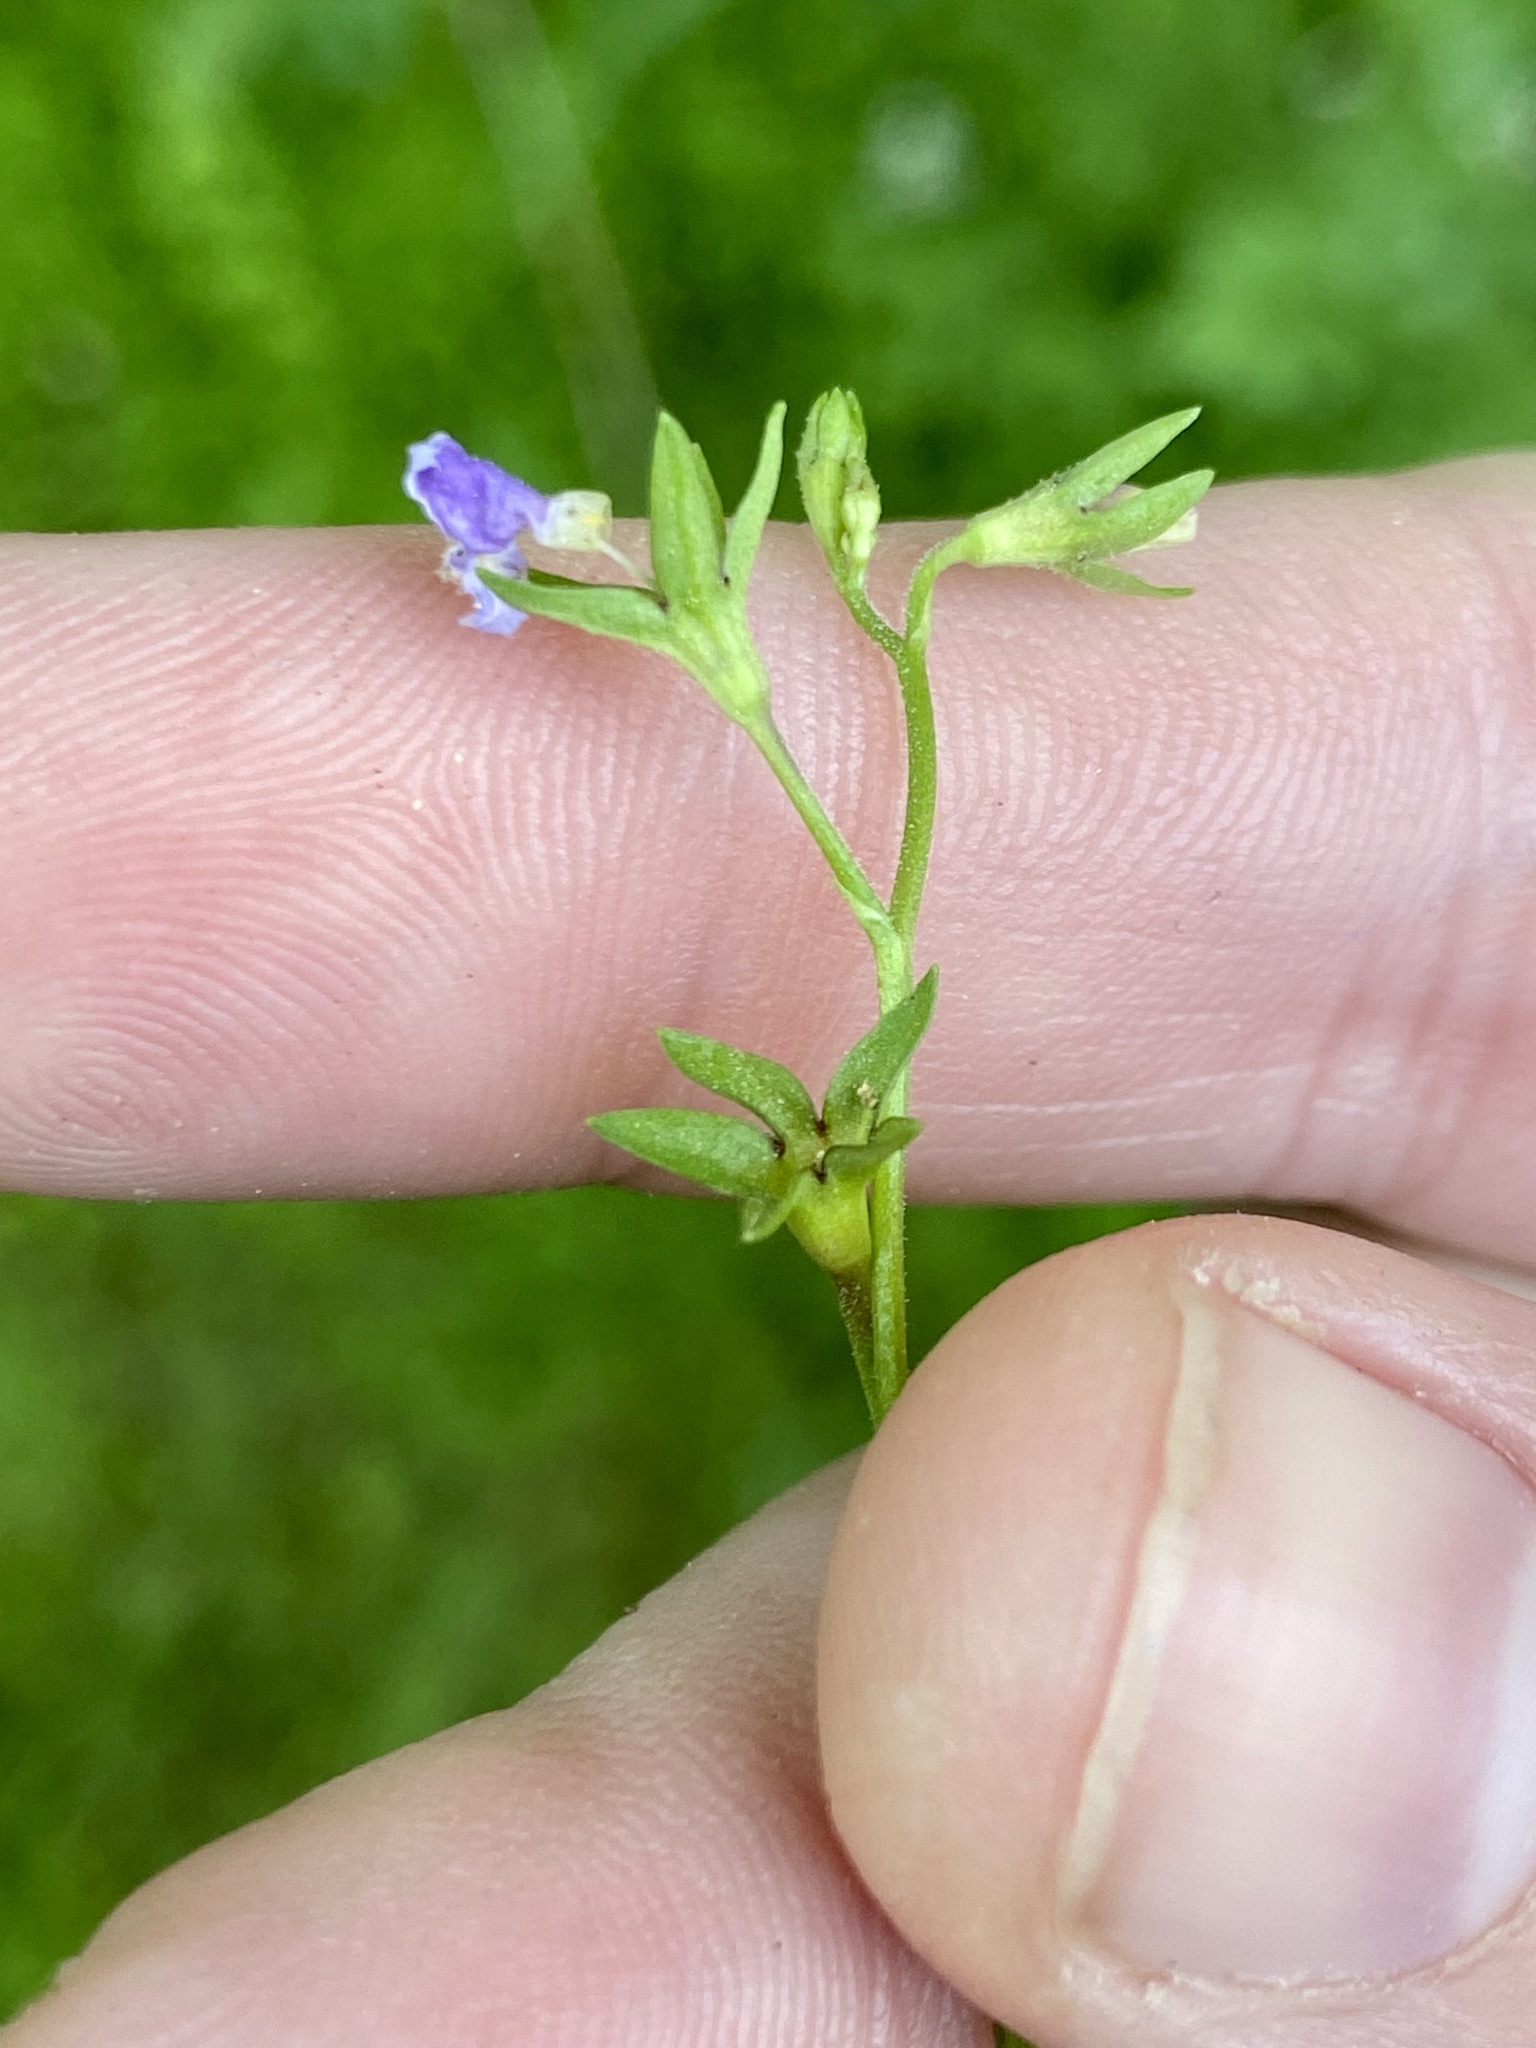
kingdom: Plantae
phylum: Tracheophyta
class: Magnoliopsida
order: Lamiales
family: Mazaceae
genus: Mazus
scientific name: Mazus pumilus
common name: Japanese mazus
